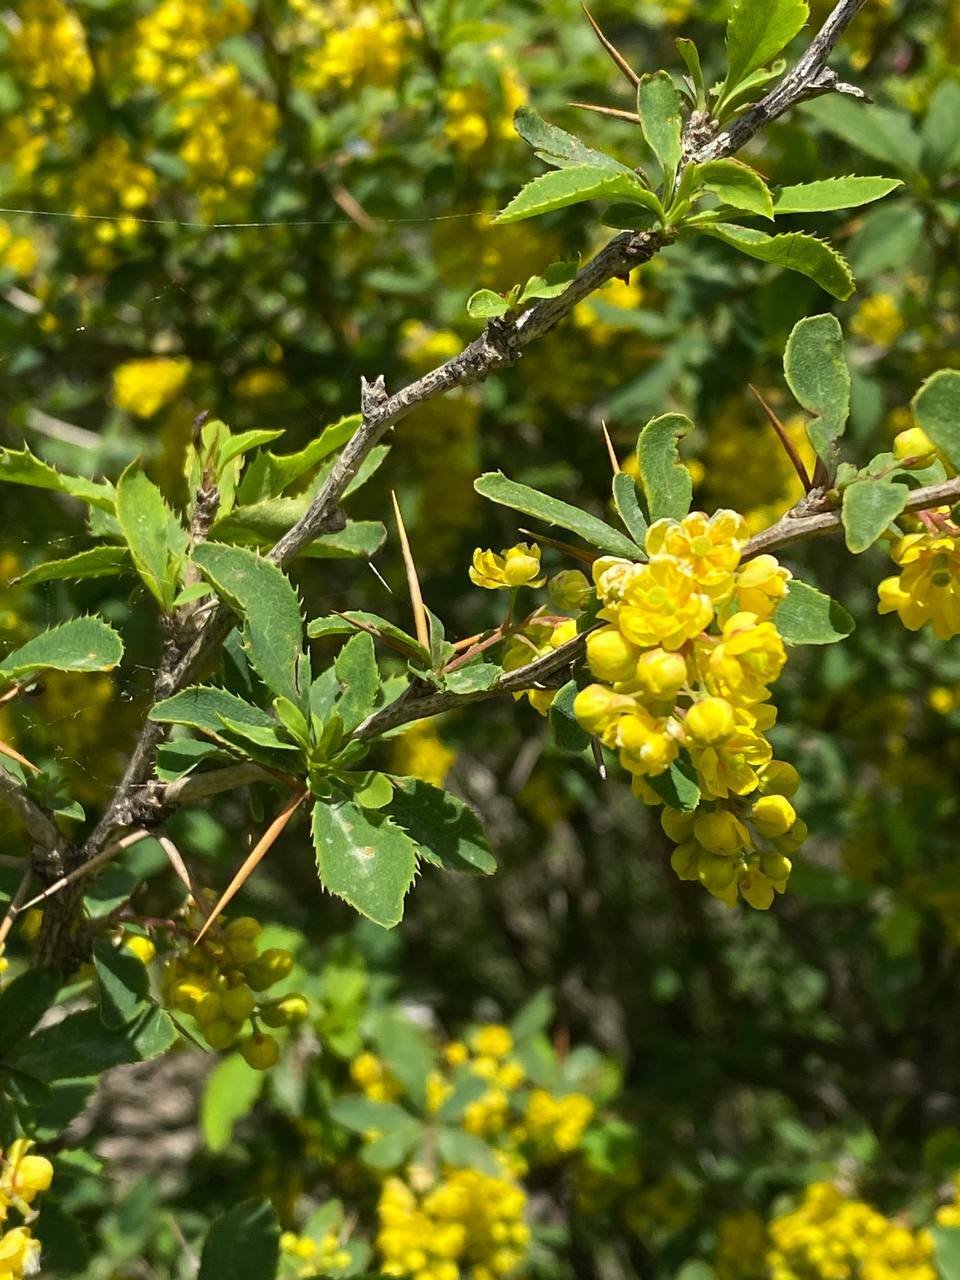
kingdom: Plantae
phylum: Tracheophyta
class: Magnoliopsida
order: Ranunculales
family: Berberidaceae
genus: Berberis
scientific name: Berberis vulgaris
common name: Barberry
